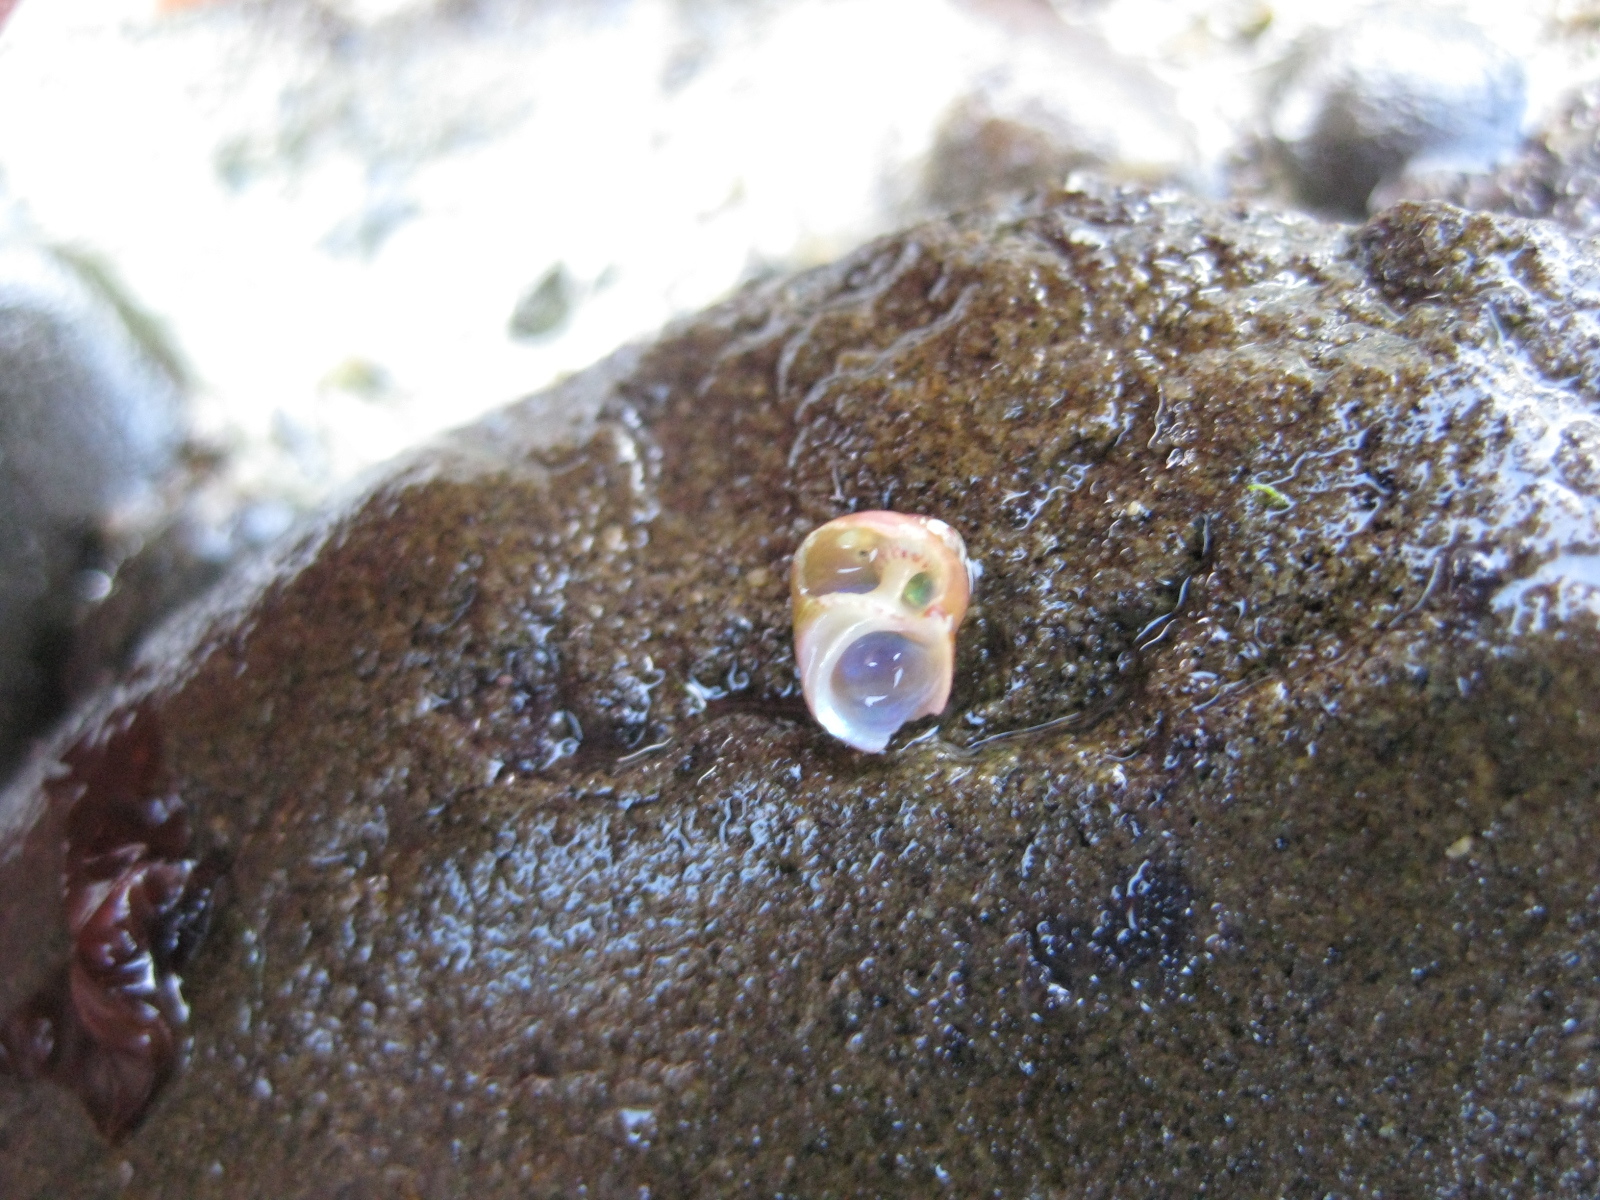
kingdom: Animalia
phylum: Mollusca
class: Gastropoda
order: Trochida
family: Trochidae
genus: Cantharidus
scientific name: Cantharidus dilatatus
